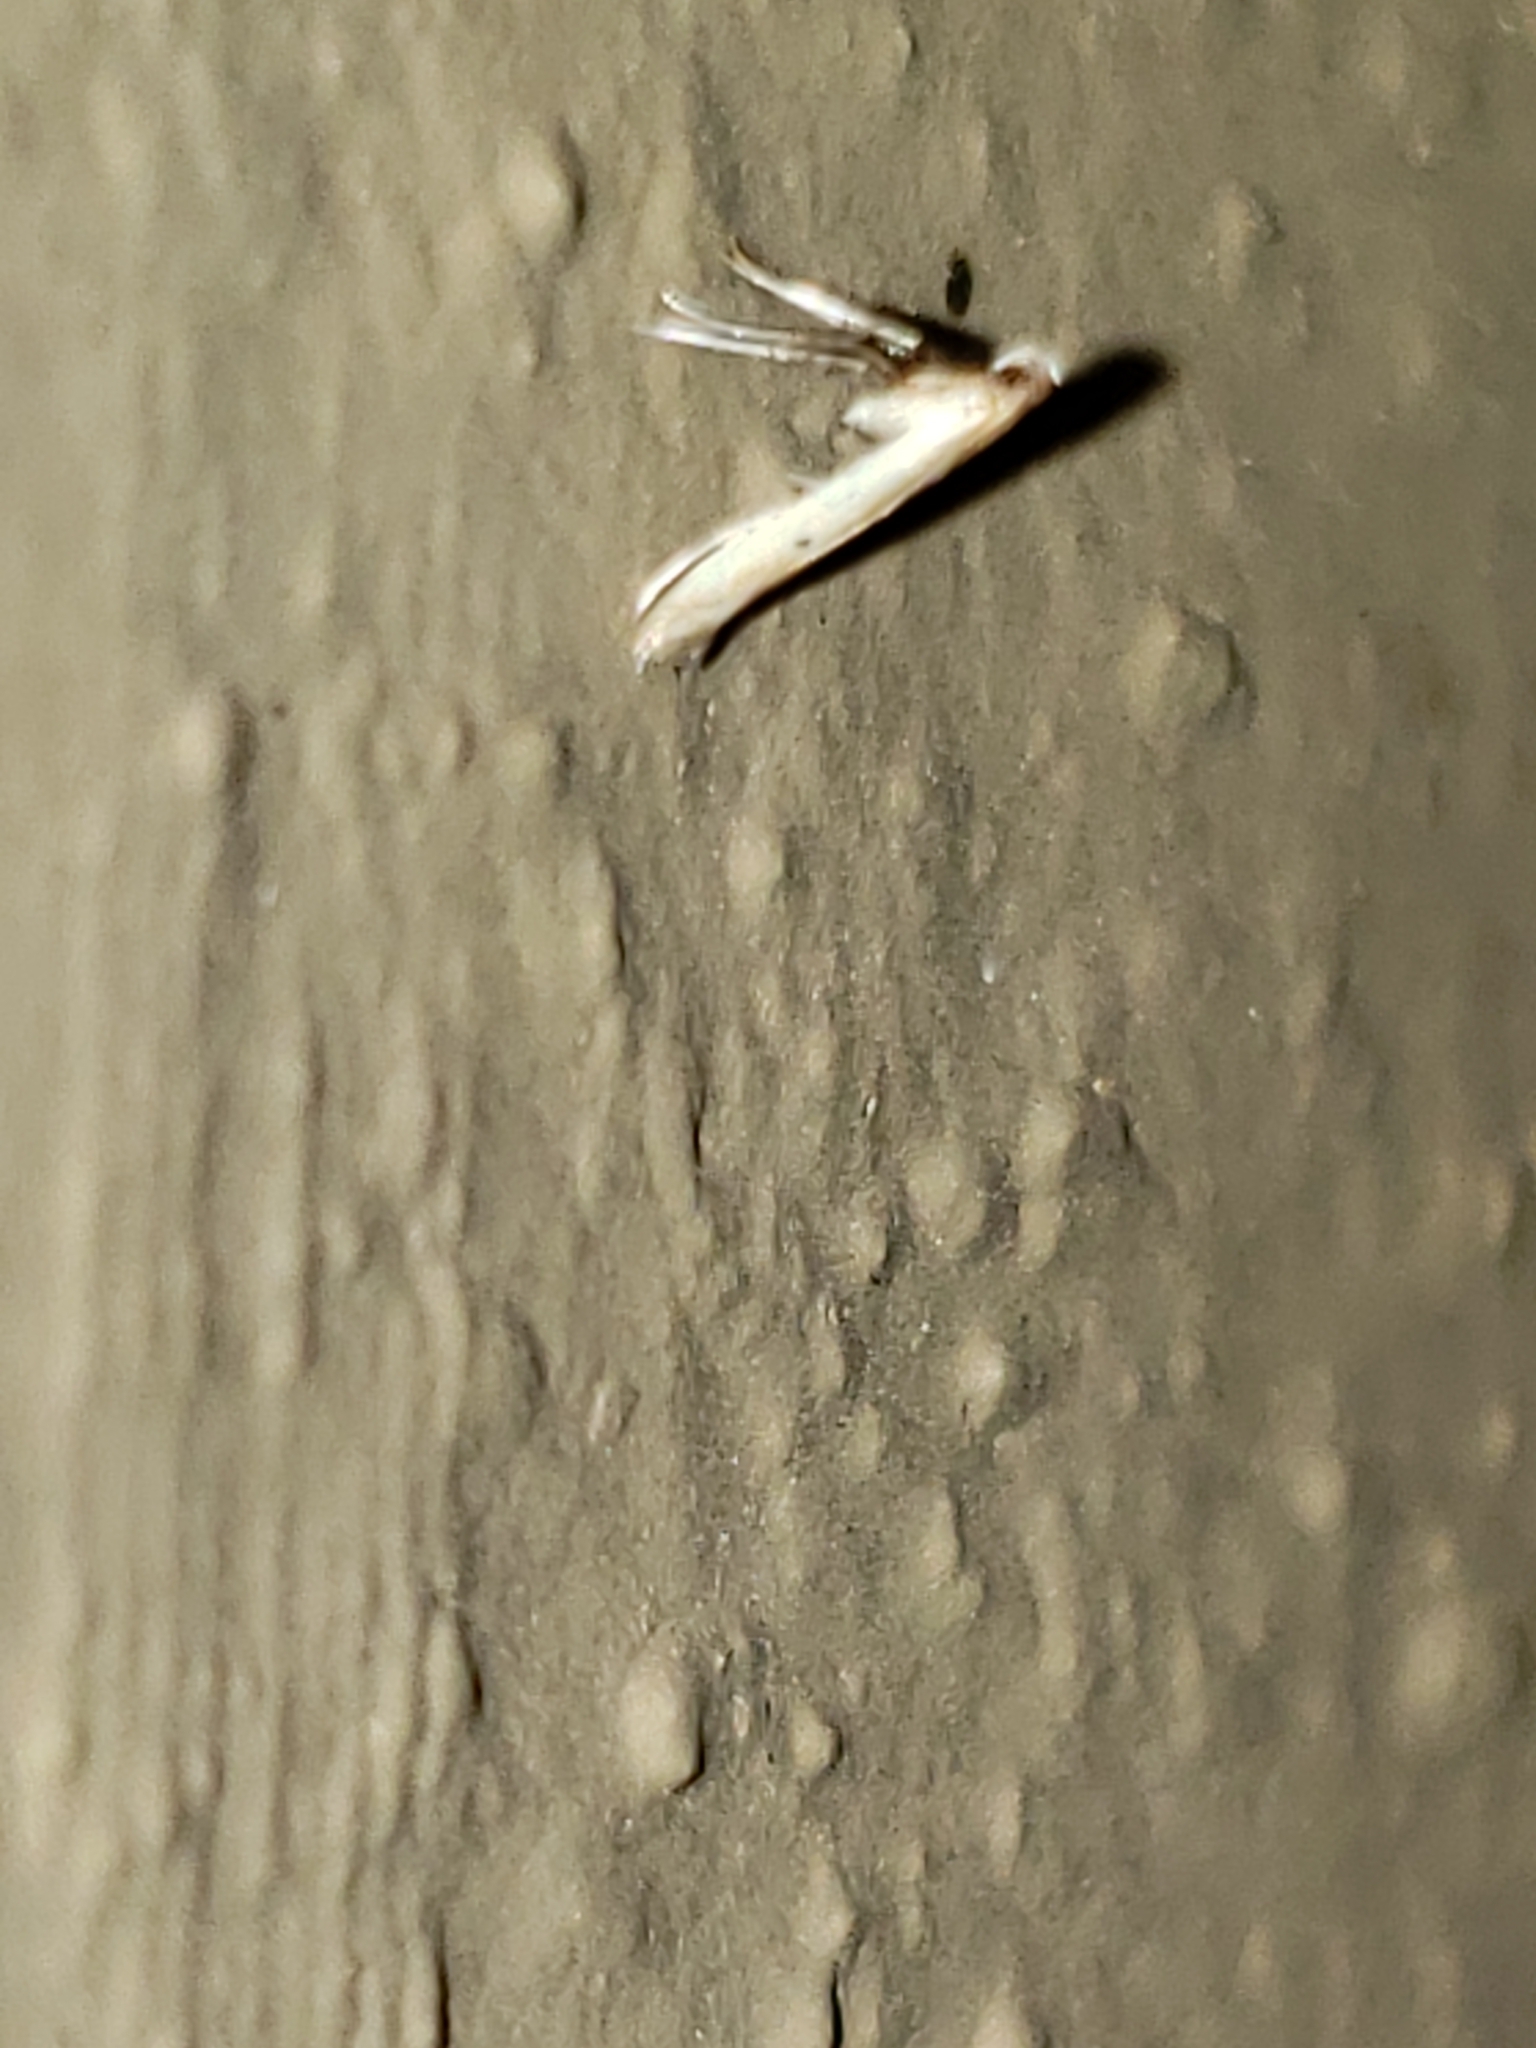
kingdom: Animalia
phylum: Arthropoda
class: Insecta
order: Lepidoptera
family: Gracillariidae
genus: Caloptilia
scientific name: Caloptilia violacella
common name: Tick-trefoil caloptilia moth
